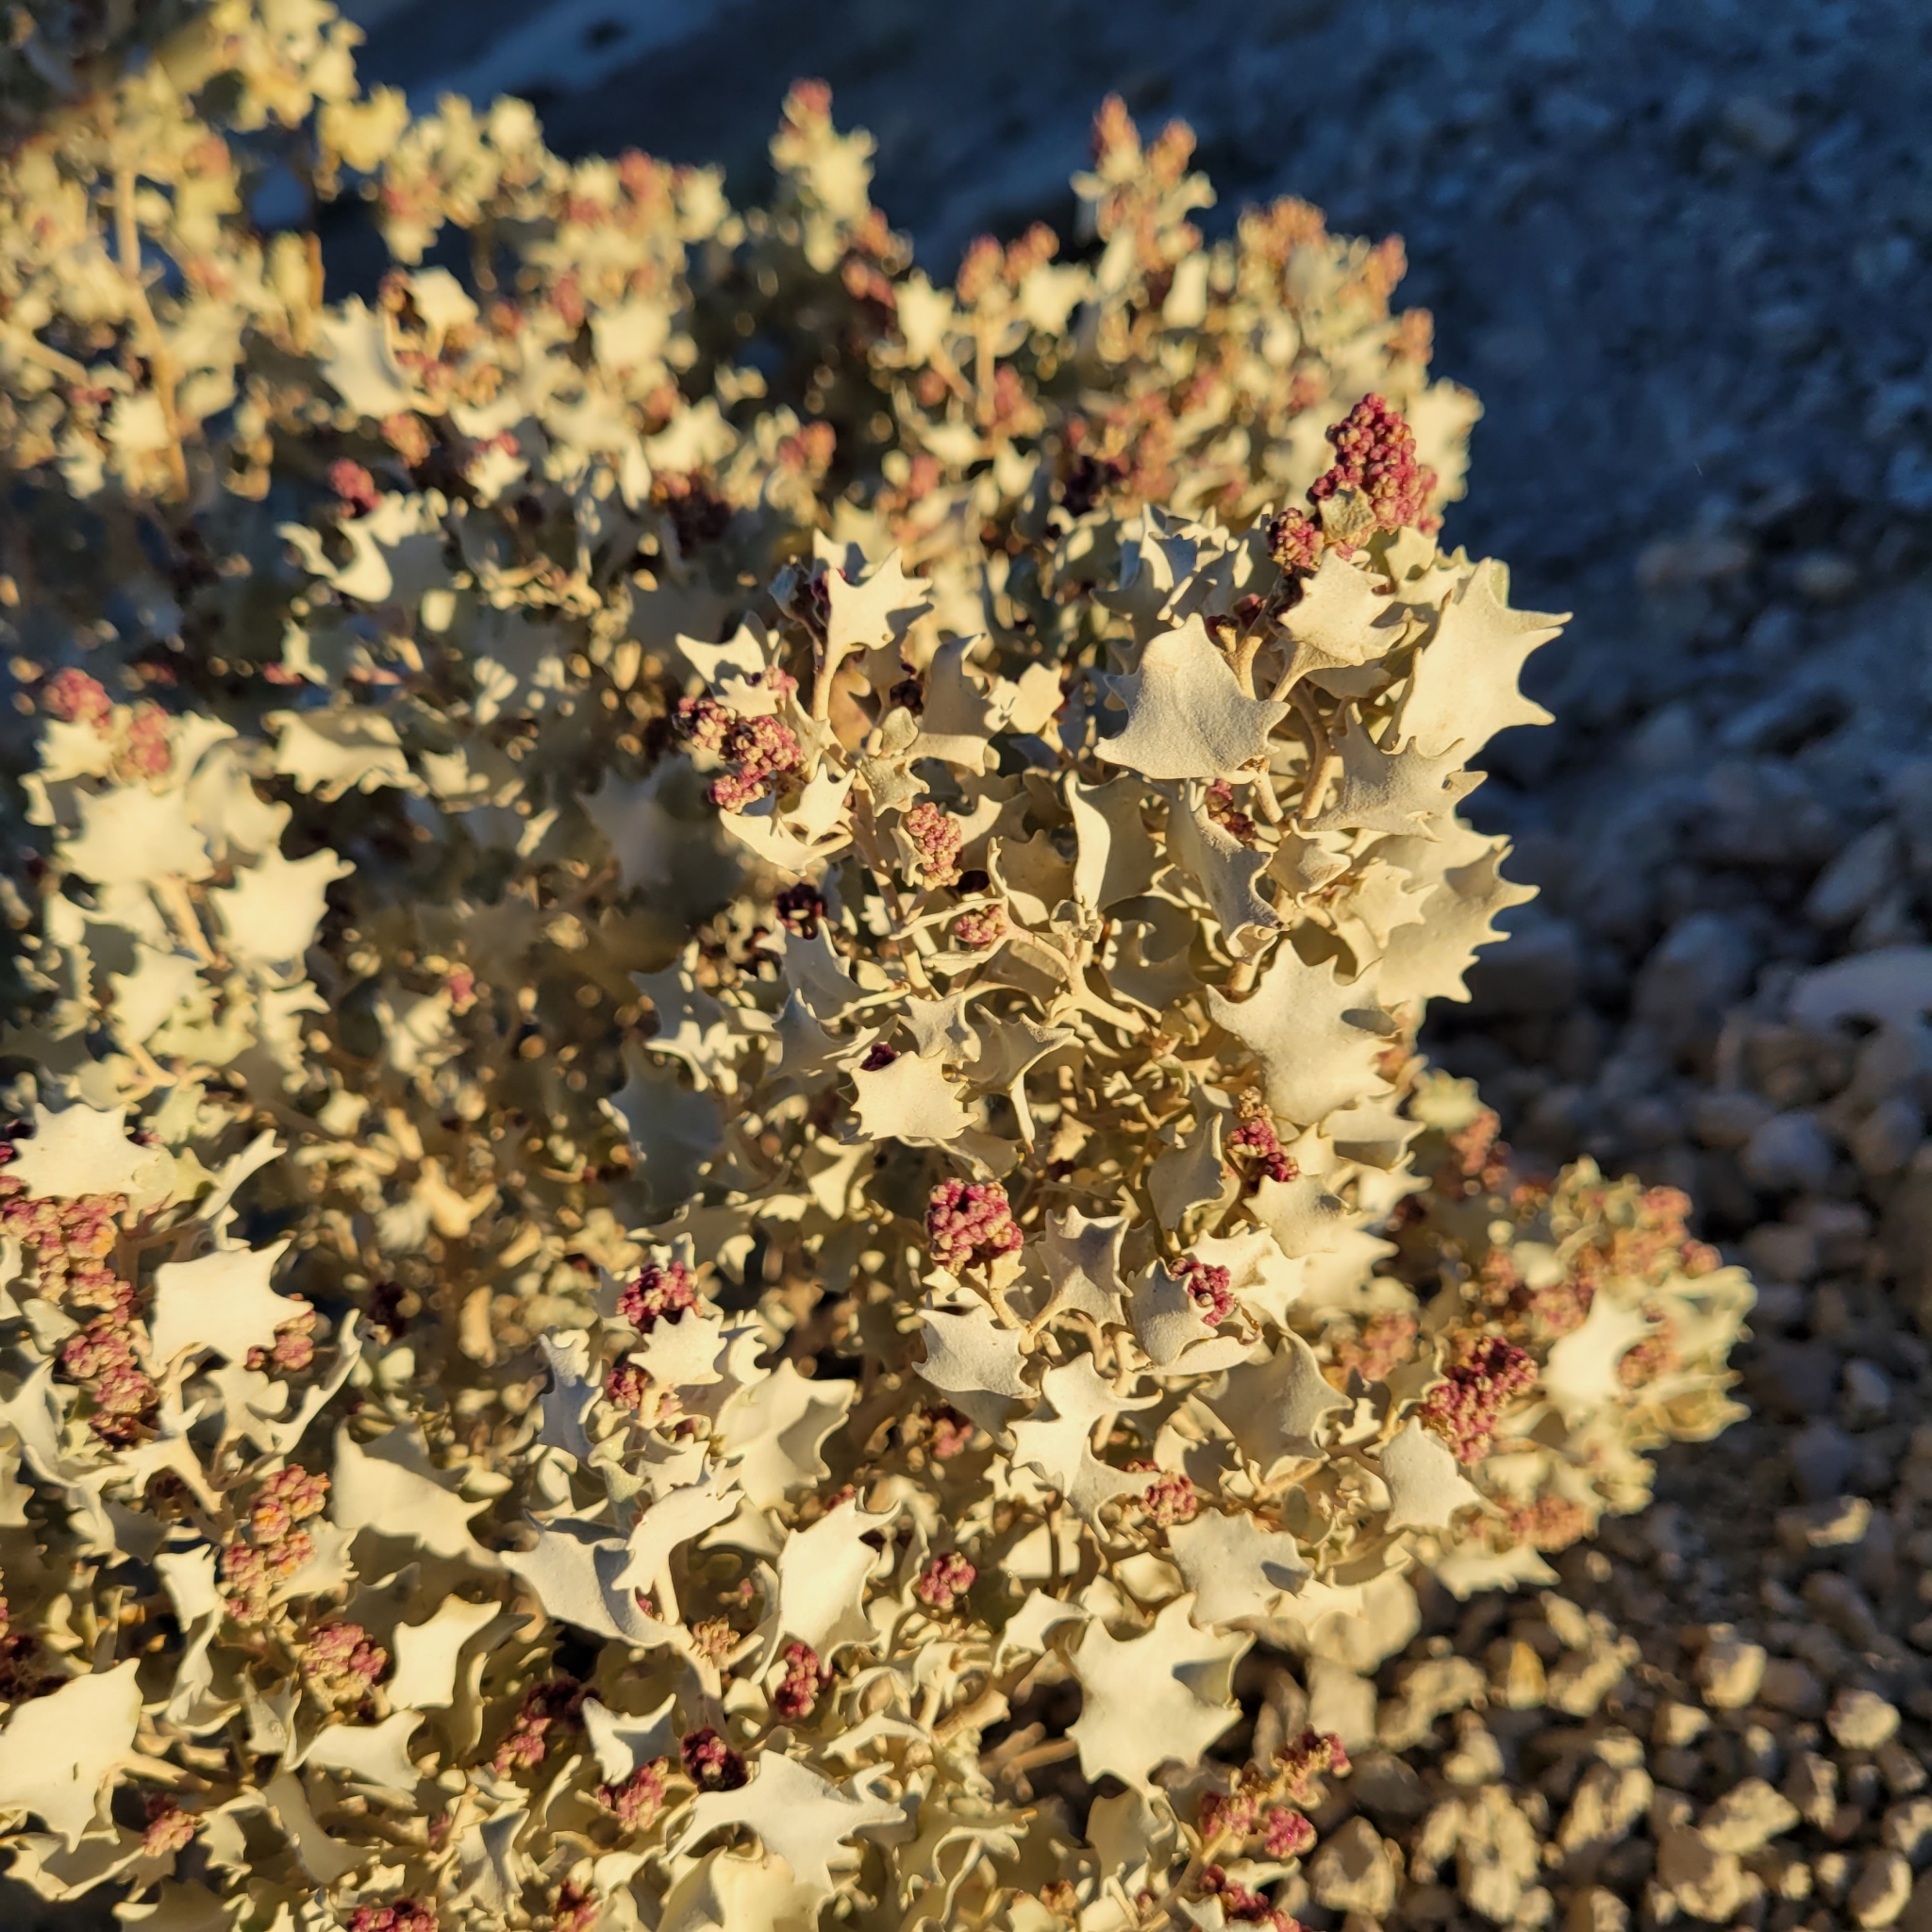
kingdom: Plantae
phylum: Tracheophyta
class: Magnoliopsida
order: Caryophyllales
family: Amaranthaceae
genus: Atriplex
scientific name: Atriplex hymenelytra
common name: Desert-holly
